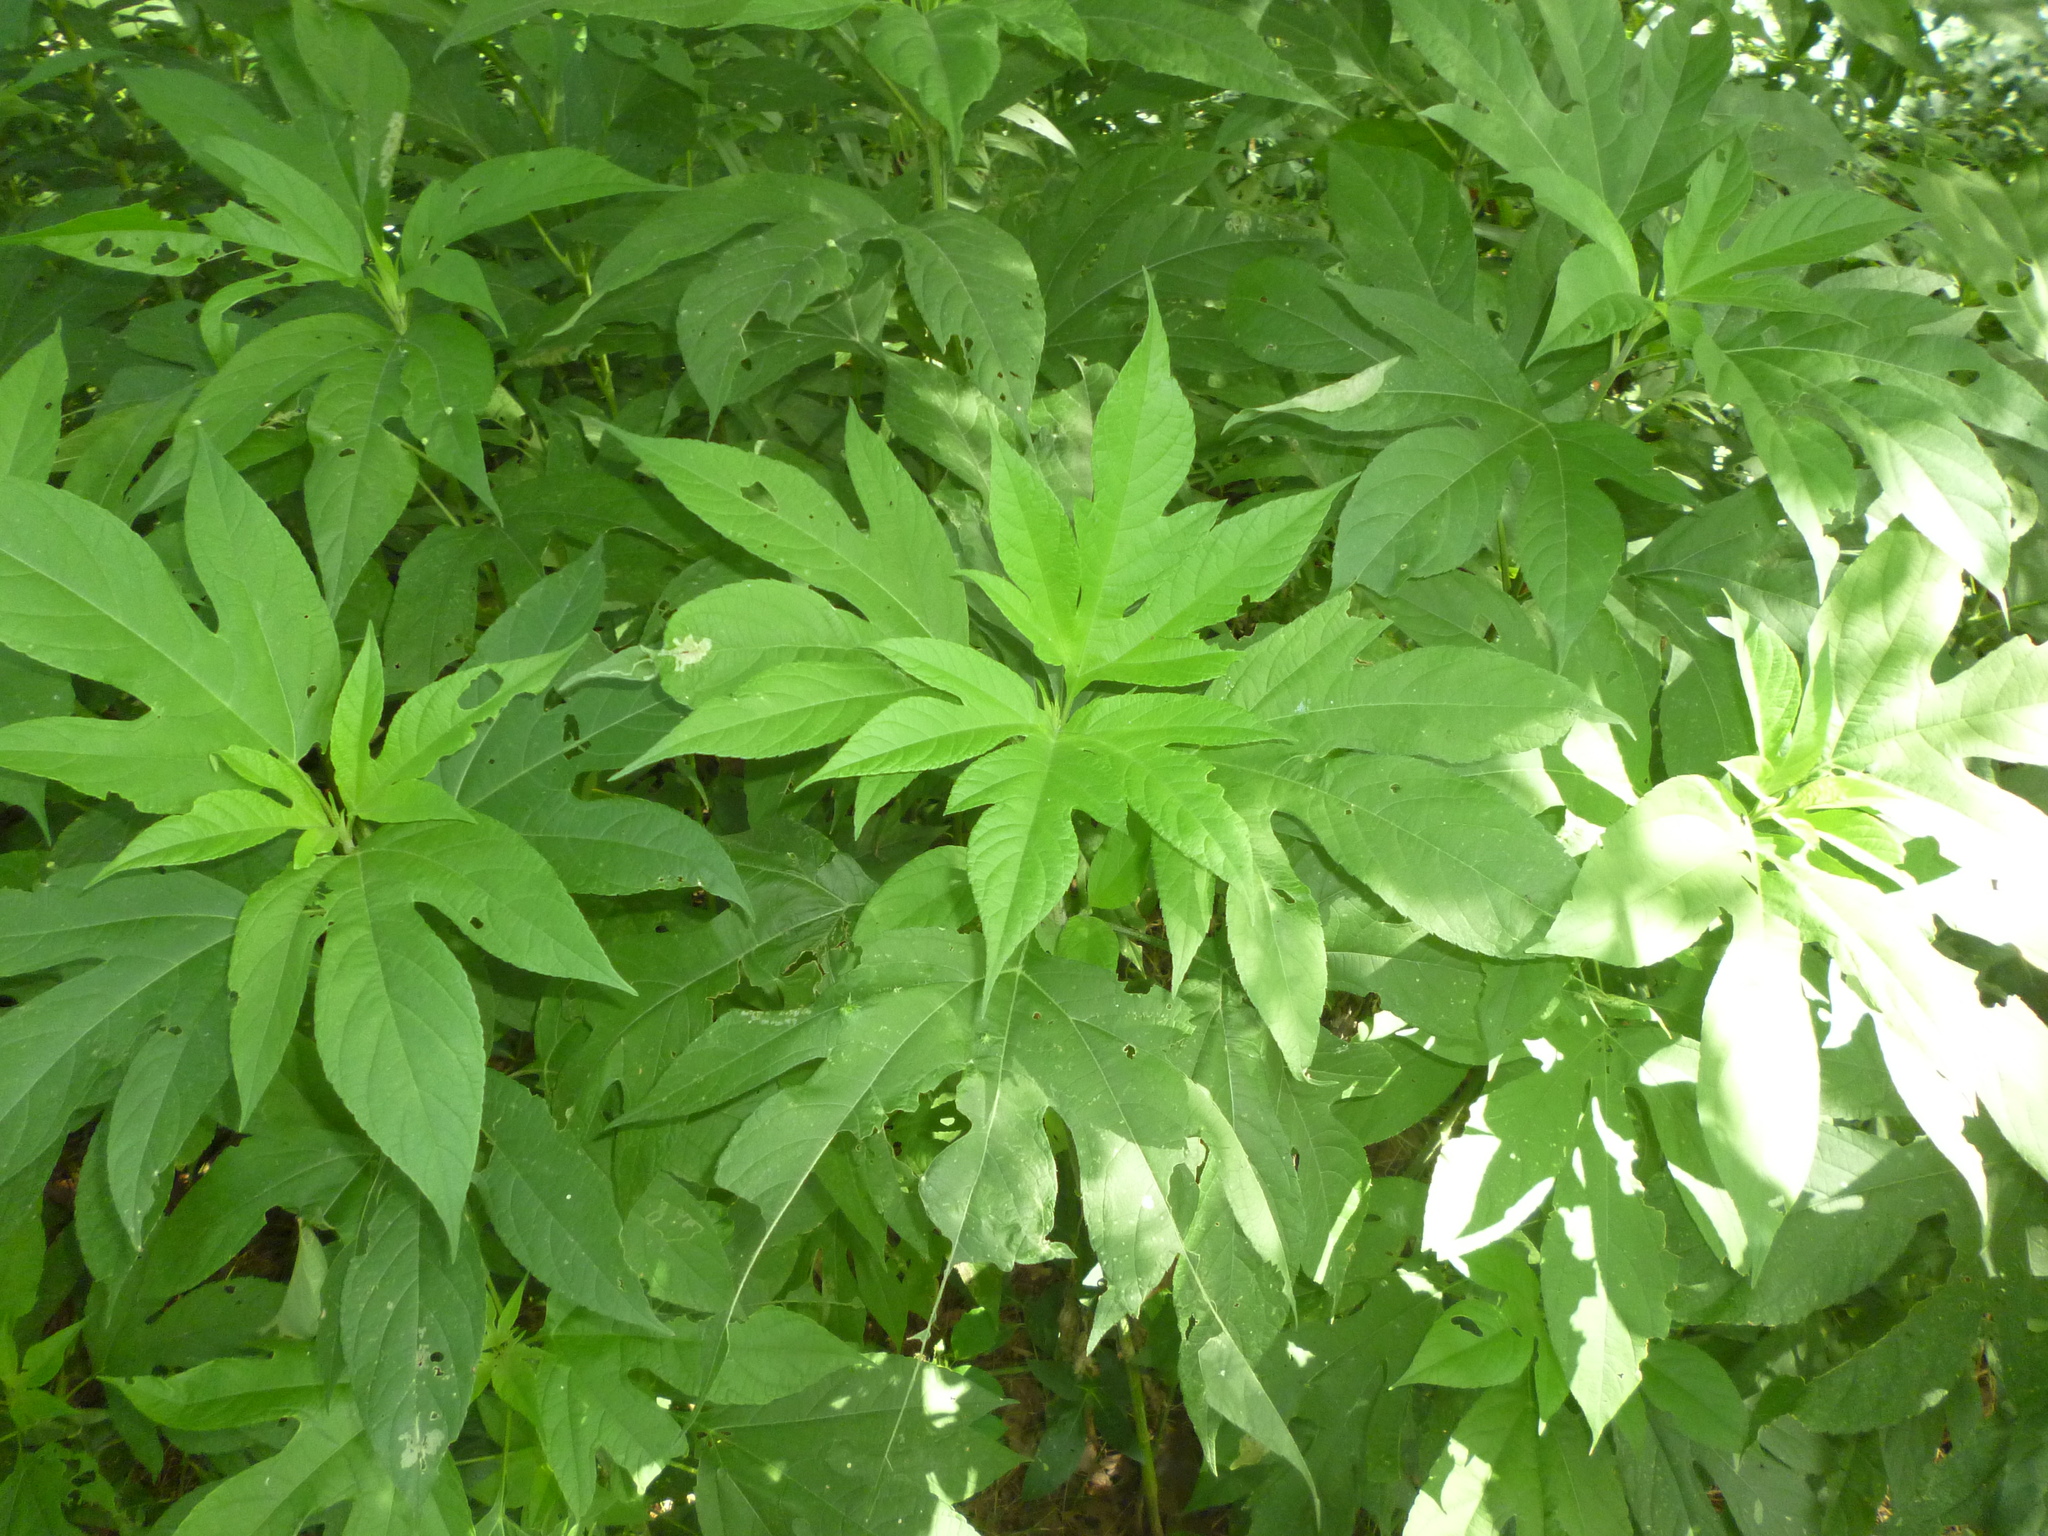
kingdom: Plantae
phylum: Tracheophyta
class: Magnoliopsida
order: Asterales
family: Asteraceae
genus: Ambrosia
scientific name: Ambrosia trifida
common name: Giant ragweed
